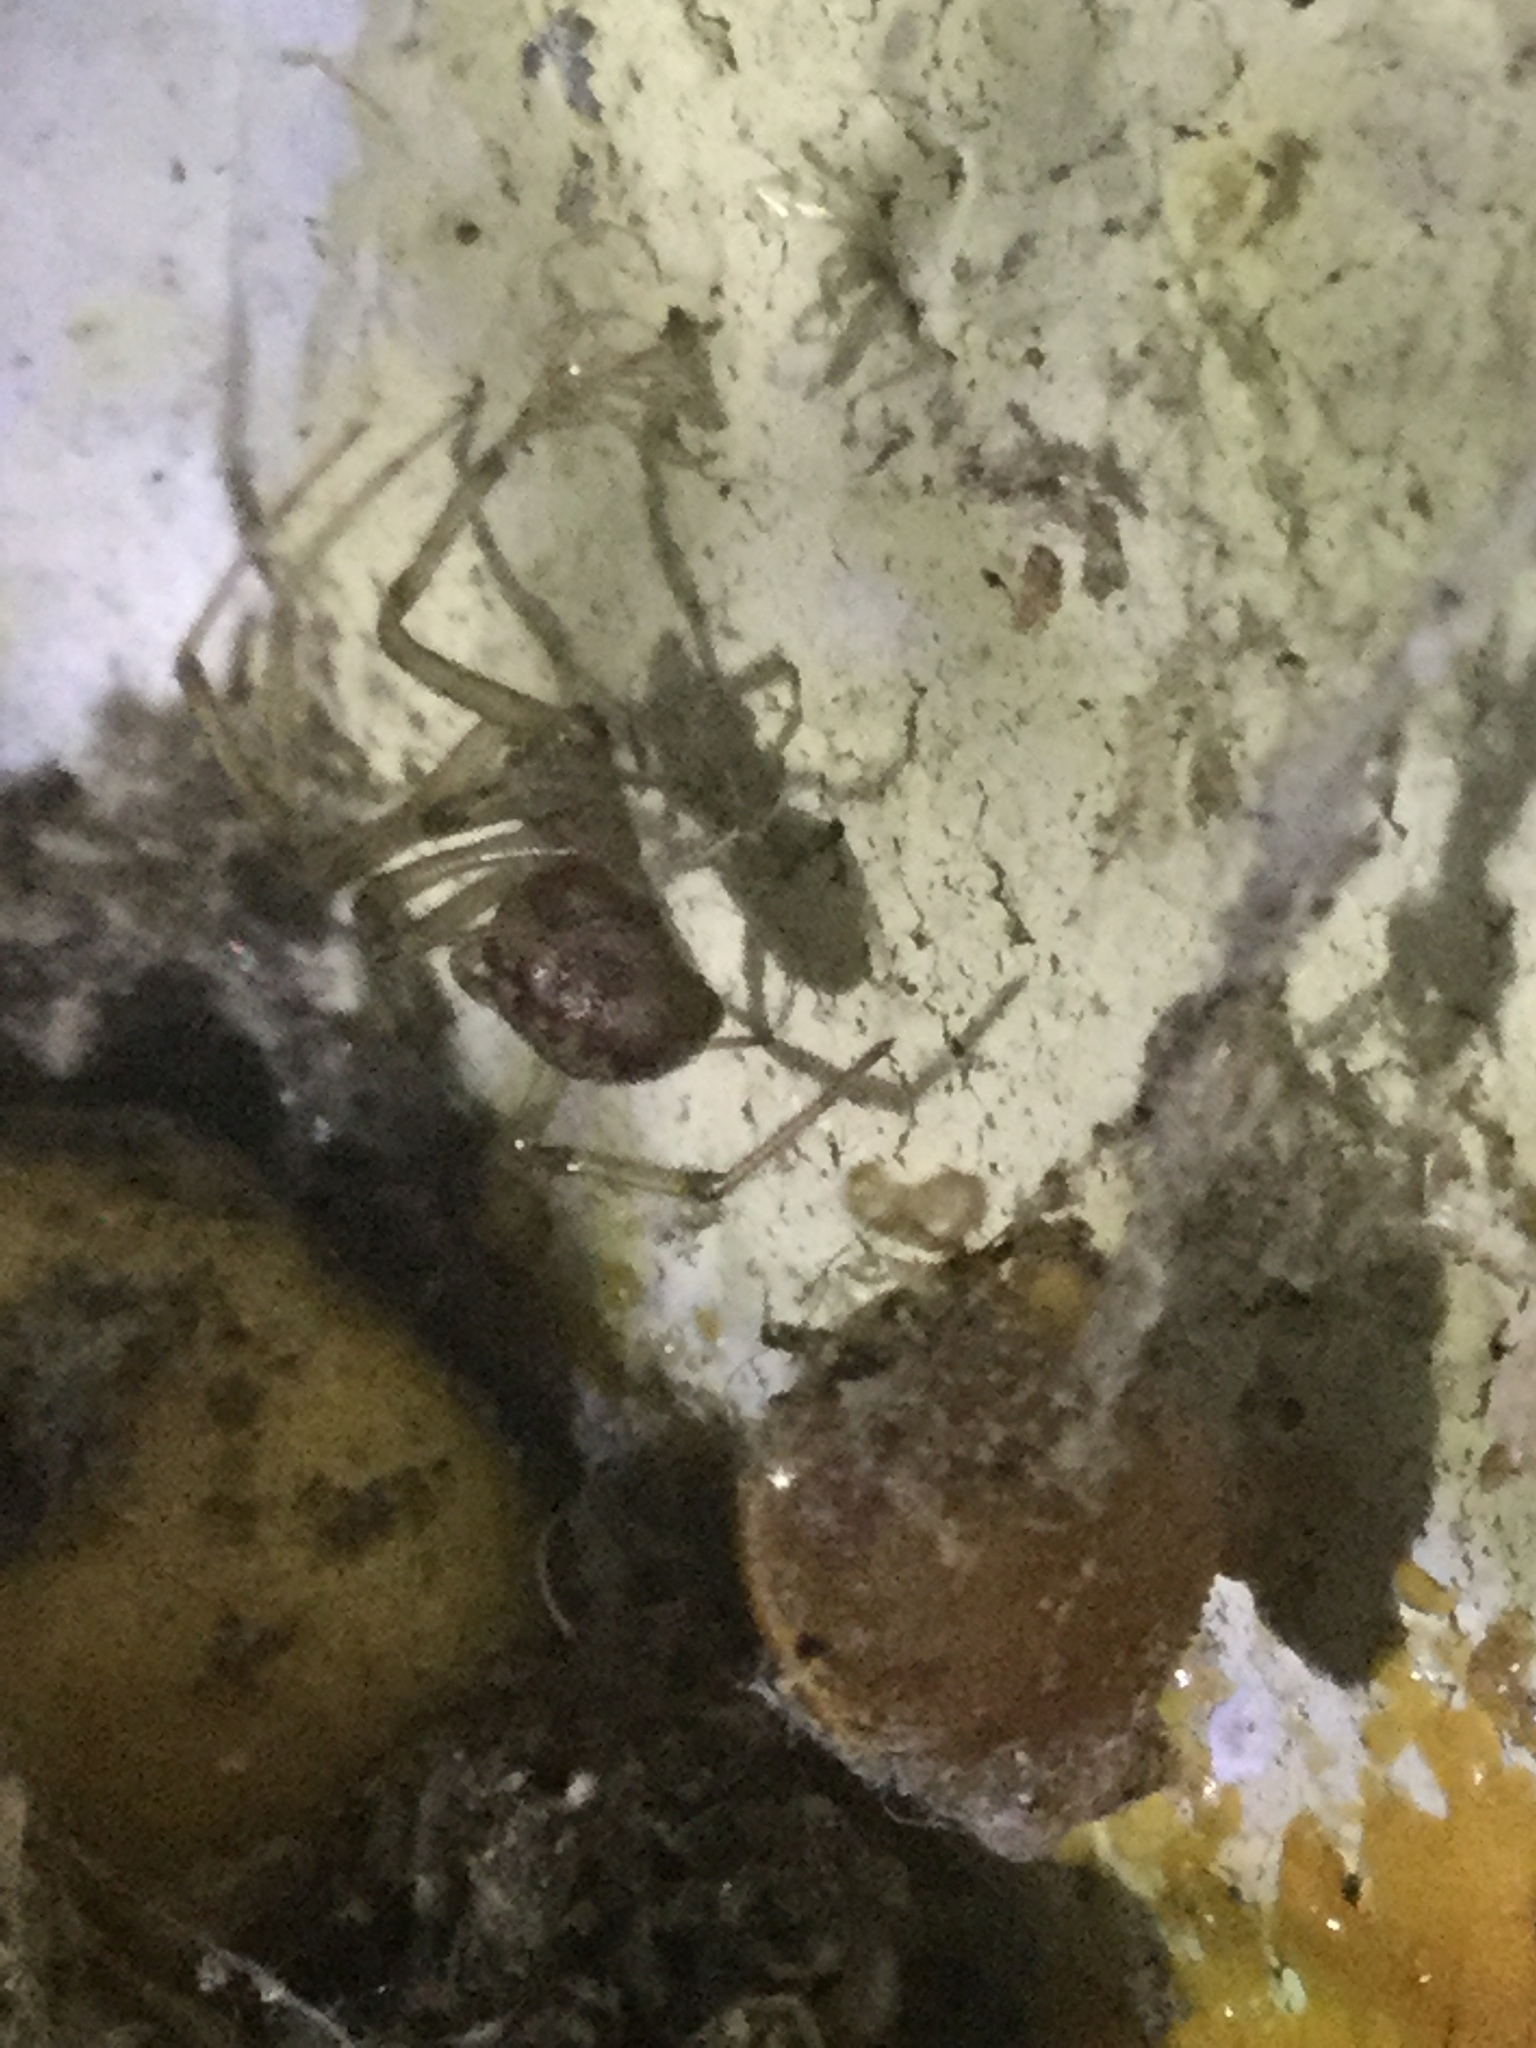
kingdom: Animalia
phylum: Arthropoda
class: Arachnida
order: Araneae
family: Theridiidae
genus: Steatoda
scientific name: Steatoda triangulosa
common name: Triangulate bud spider
